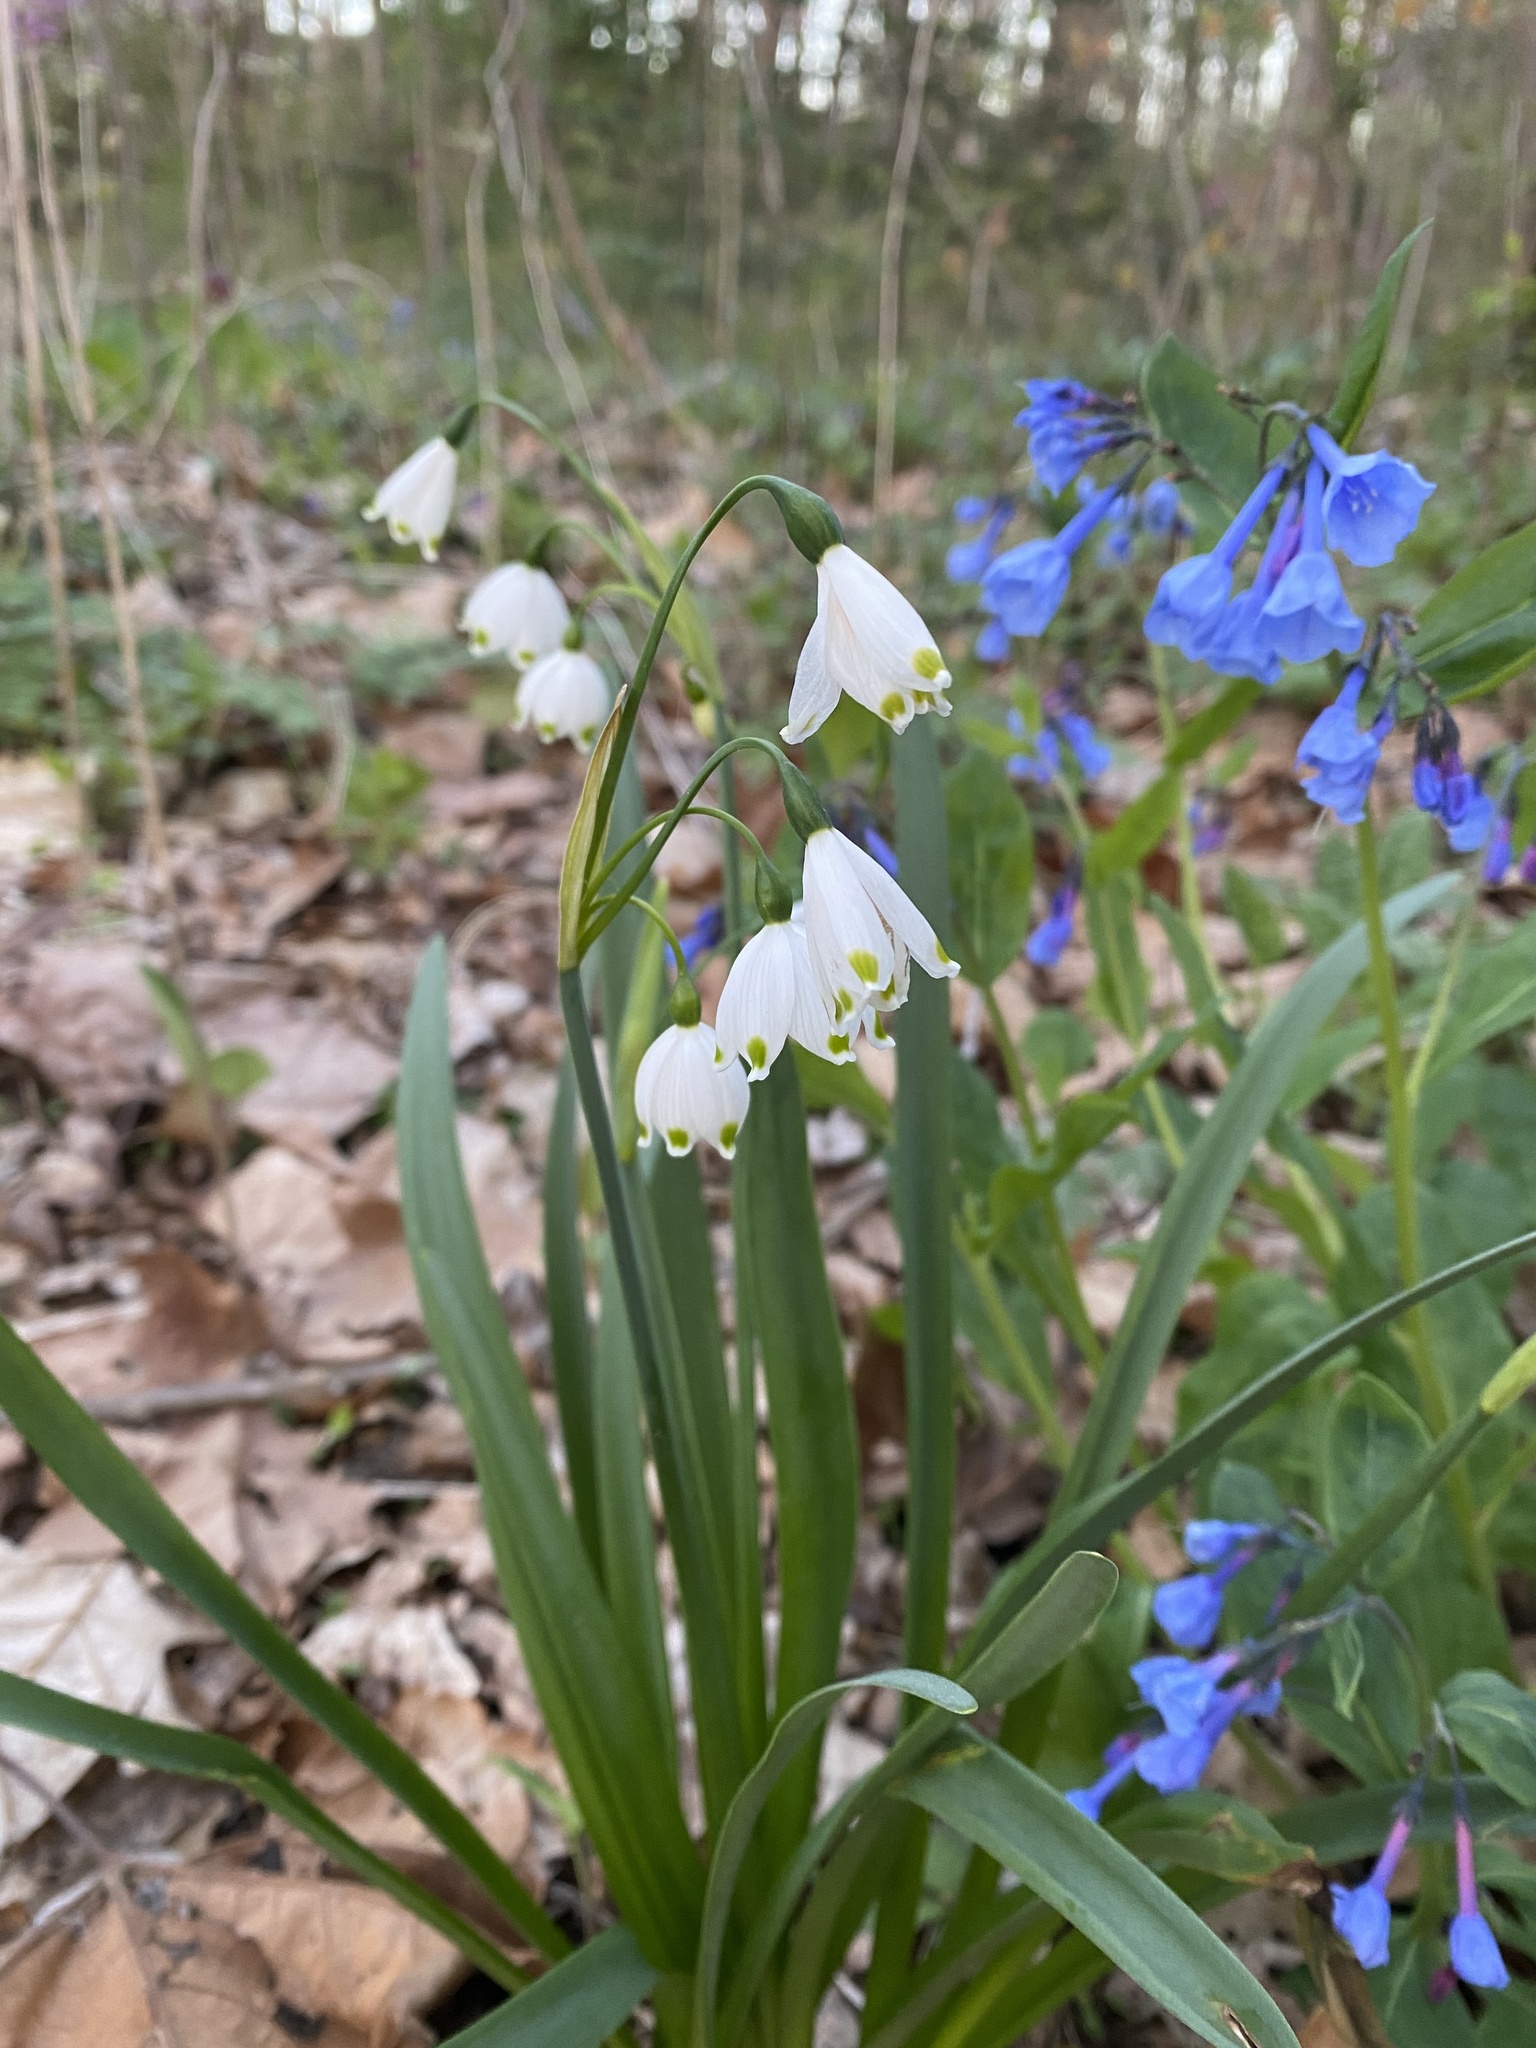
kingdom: Plantae
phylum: Tracheophyta
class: Liliopsida
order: Asparagales
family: Amaryllidaceae
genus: Leucojum
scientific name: Leucojum aestivum
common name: Summer snowflake
